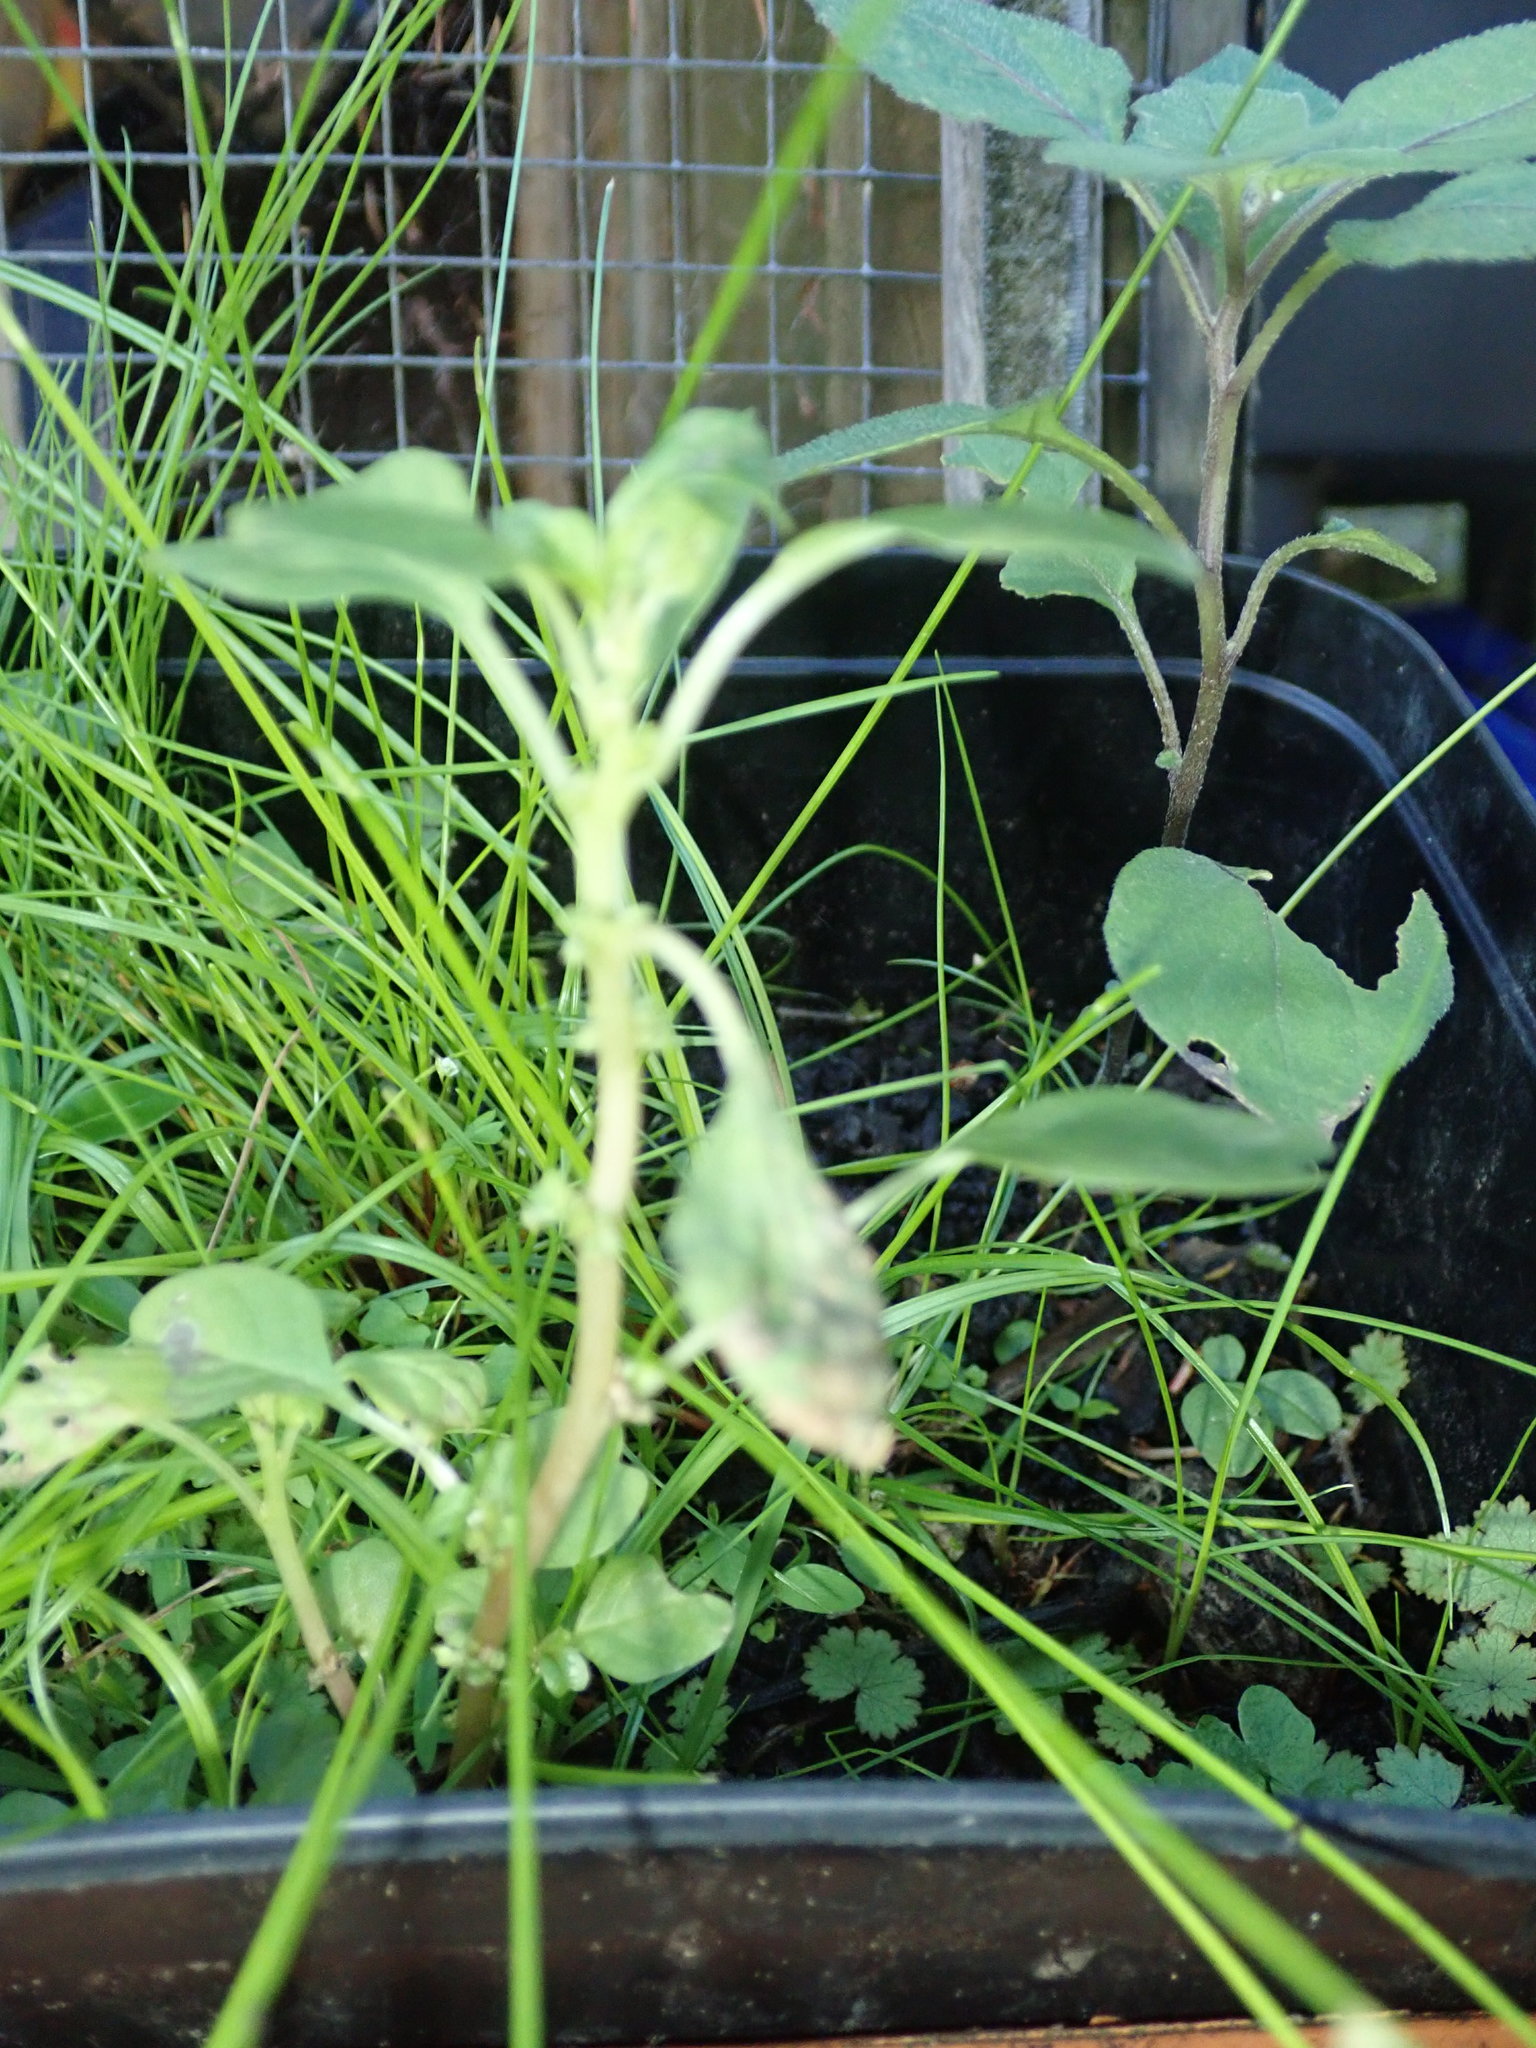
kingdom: Plantae
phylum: Tracheophyta
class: Magnoliopsida
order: Caryophyllales
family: Amaranthaceae
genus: Amaranthus
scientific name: Amaranthus blitum
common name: Purple amaranth
